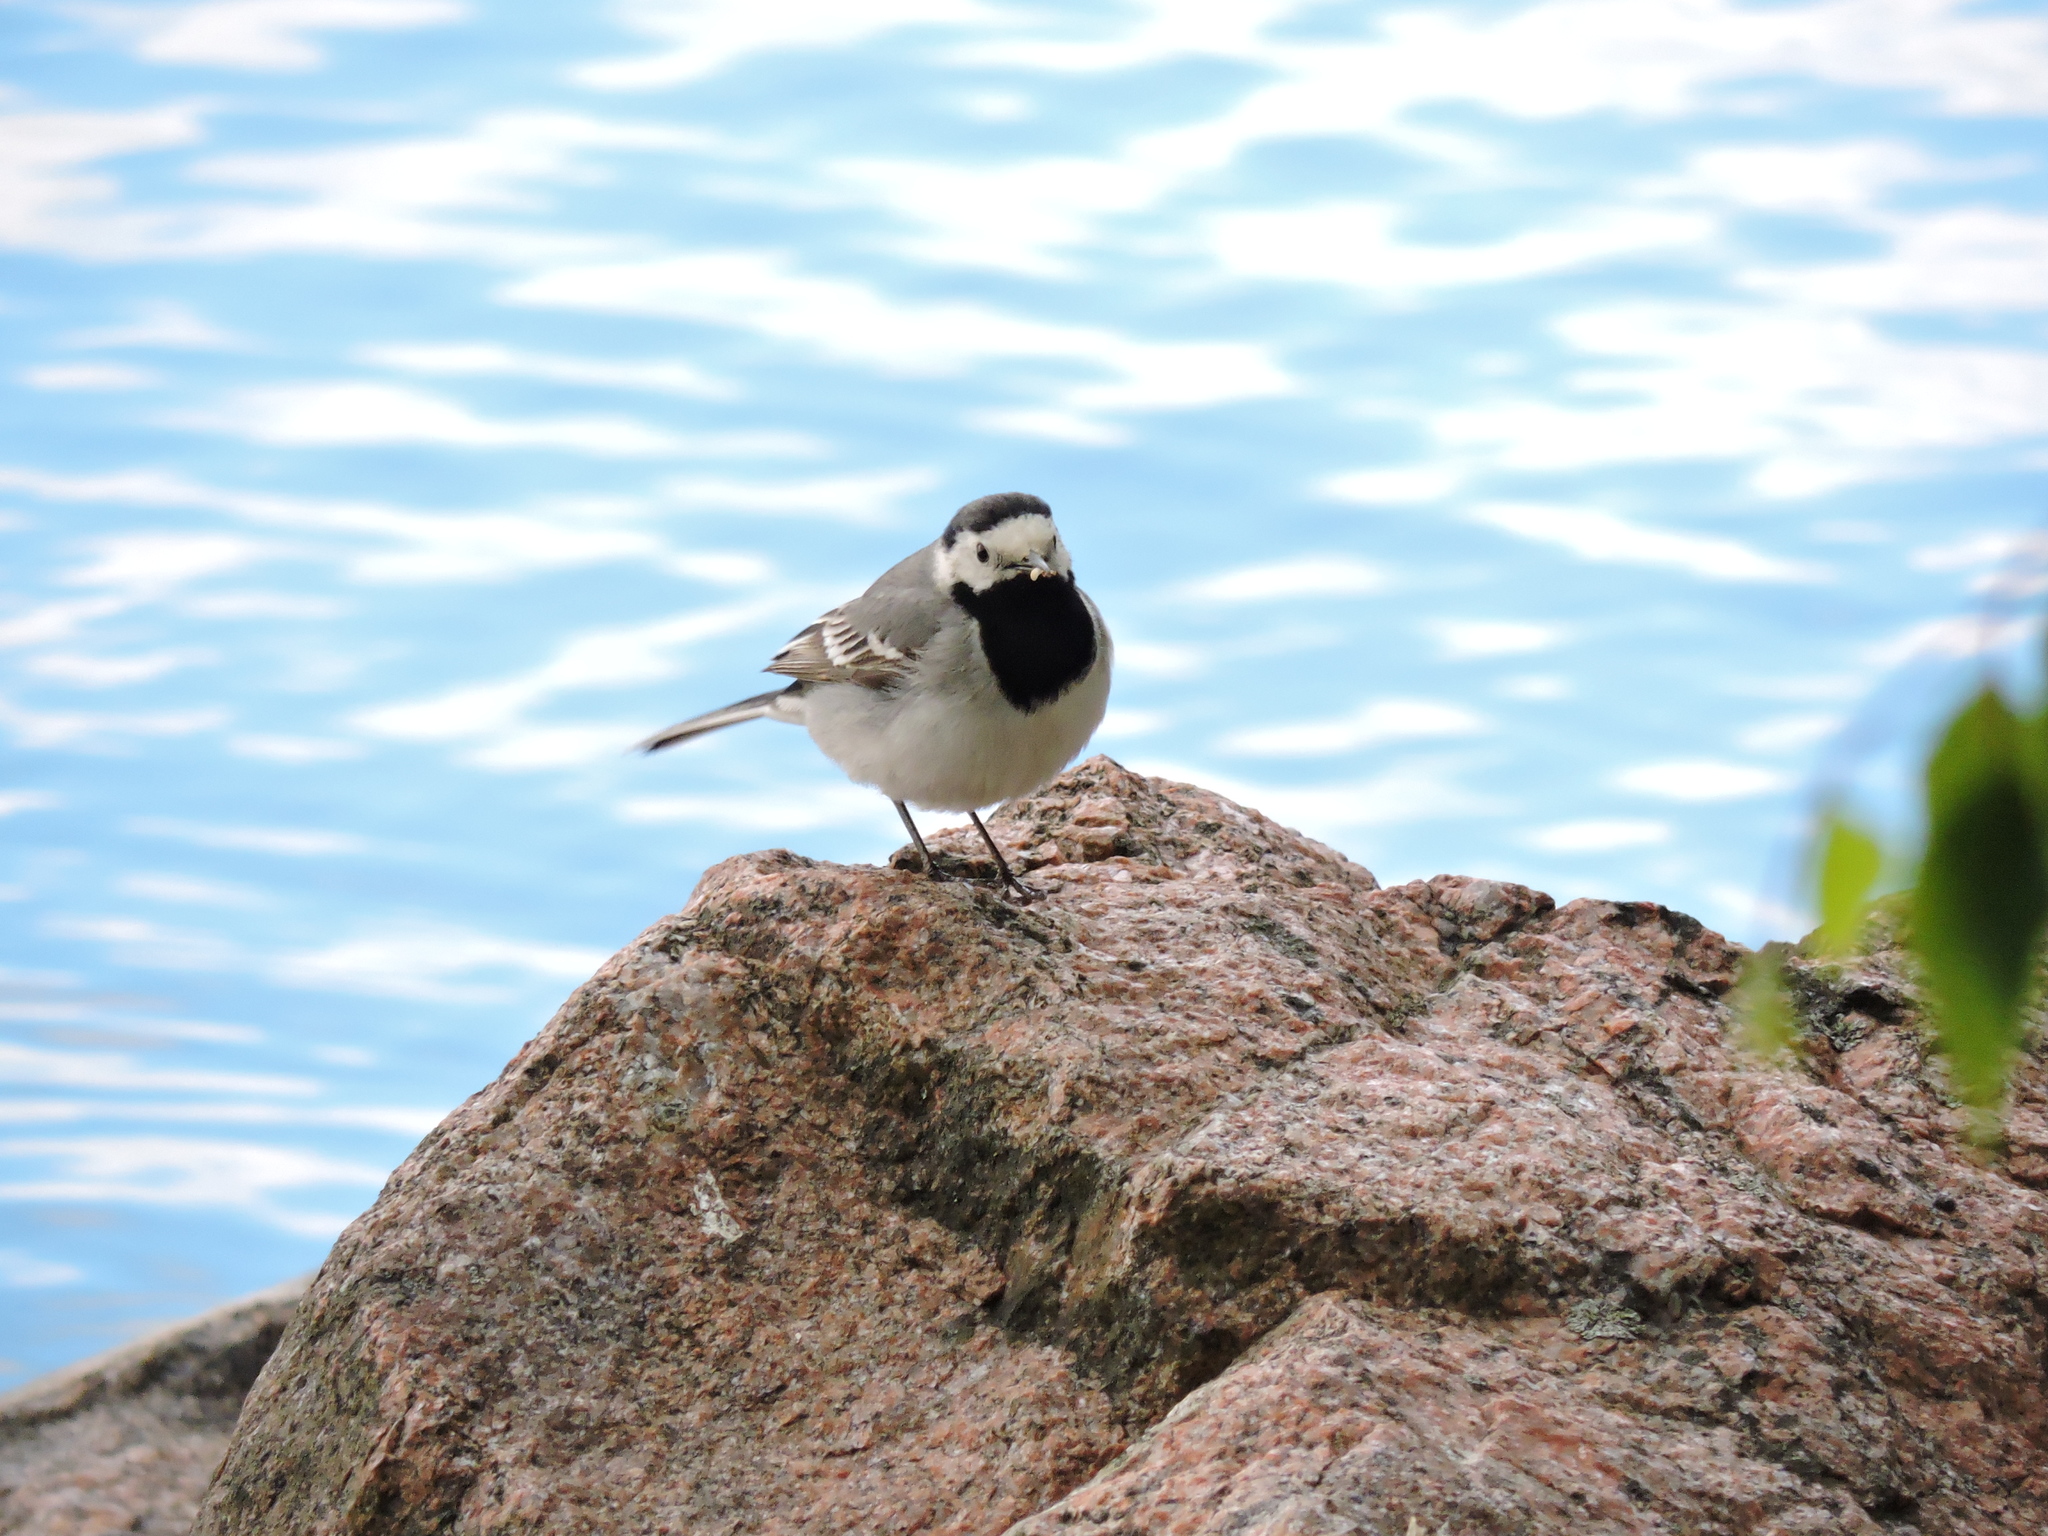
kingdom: Animalia
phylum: Chordata
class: Aves
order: Passeriformes
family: Motacillidae
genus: Motacilla
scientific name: Motacilla alba
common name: White wagtail
